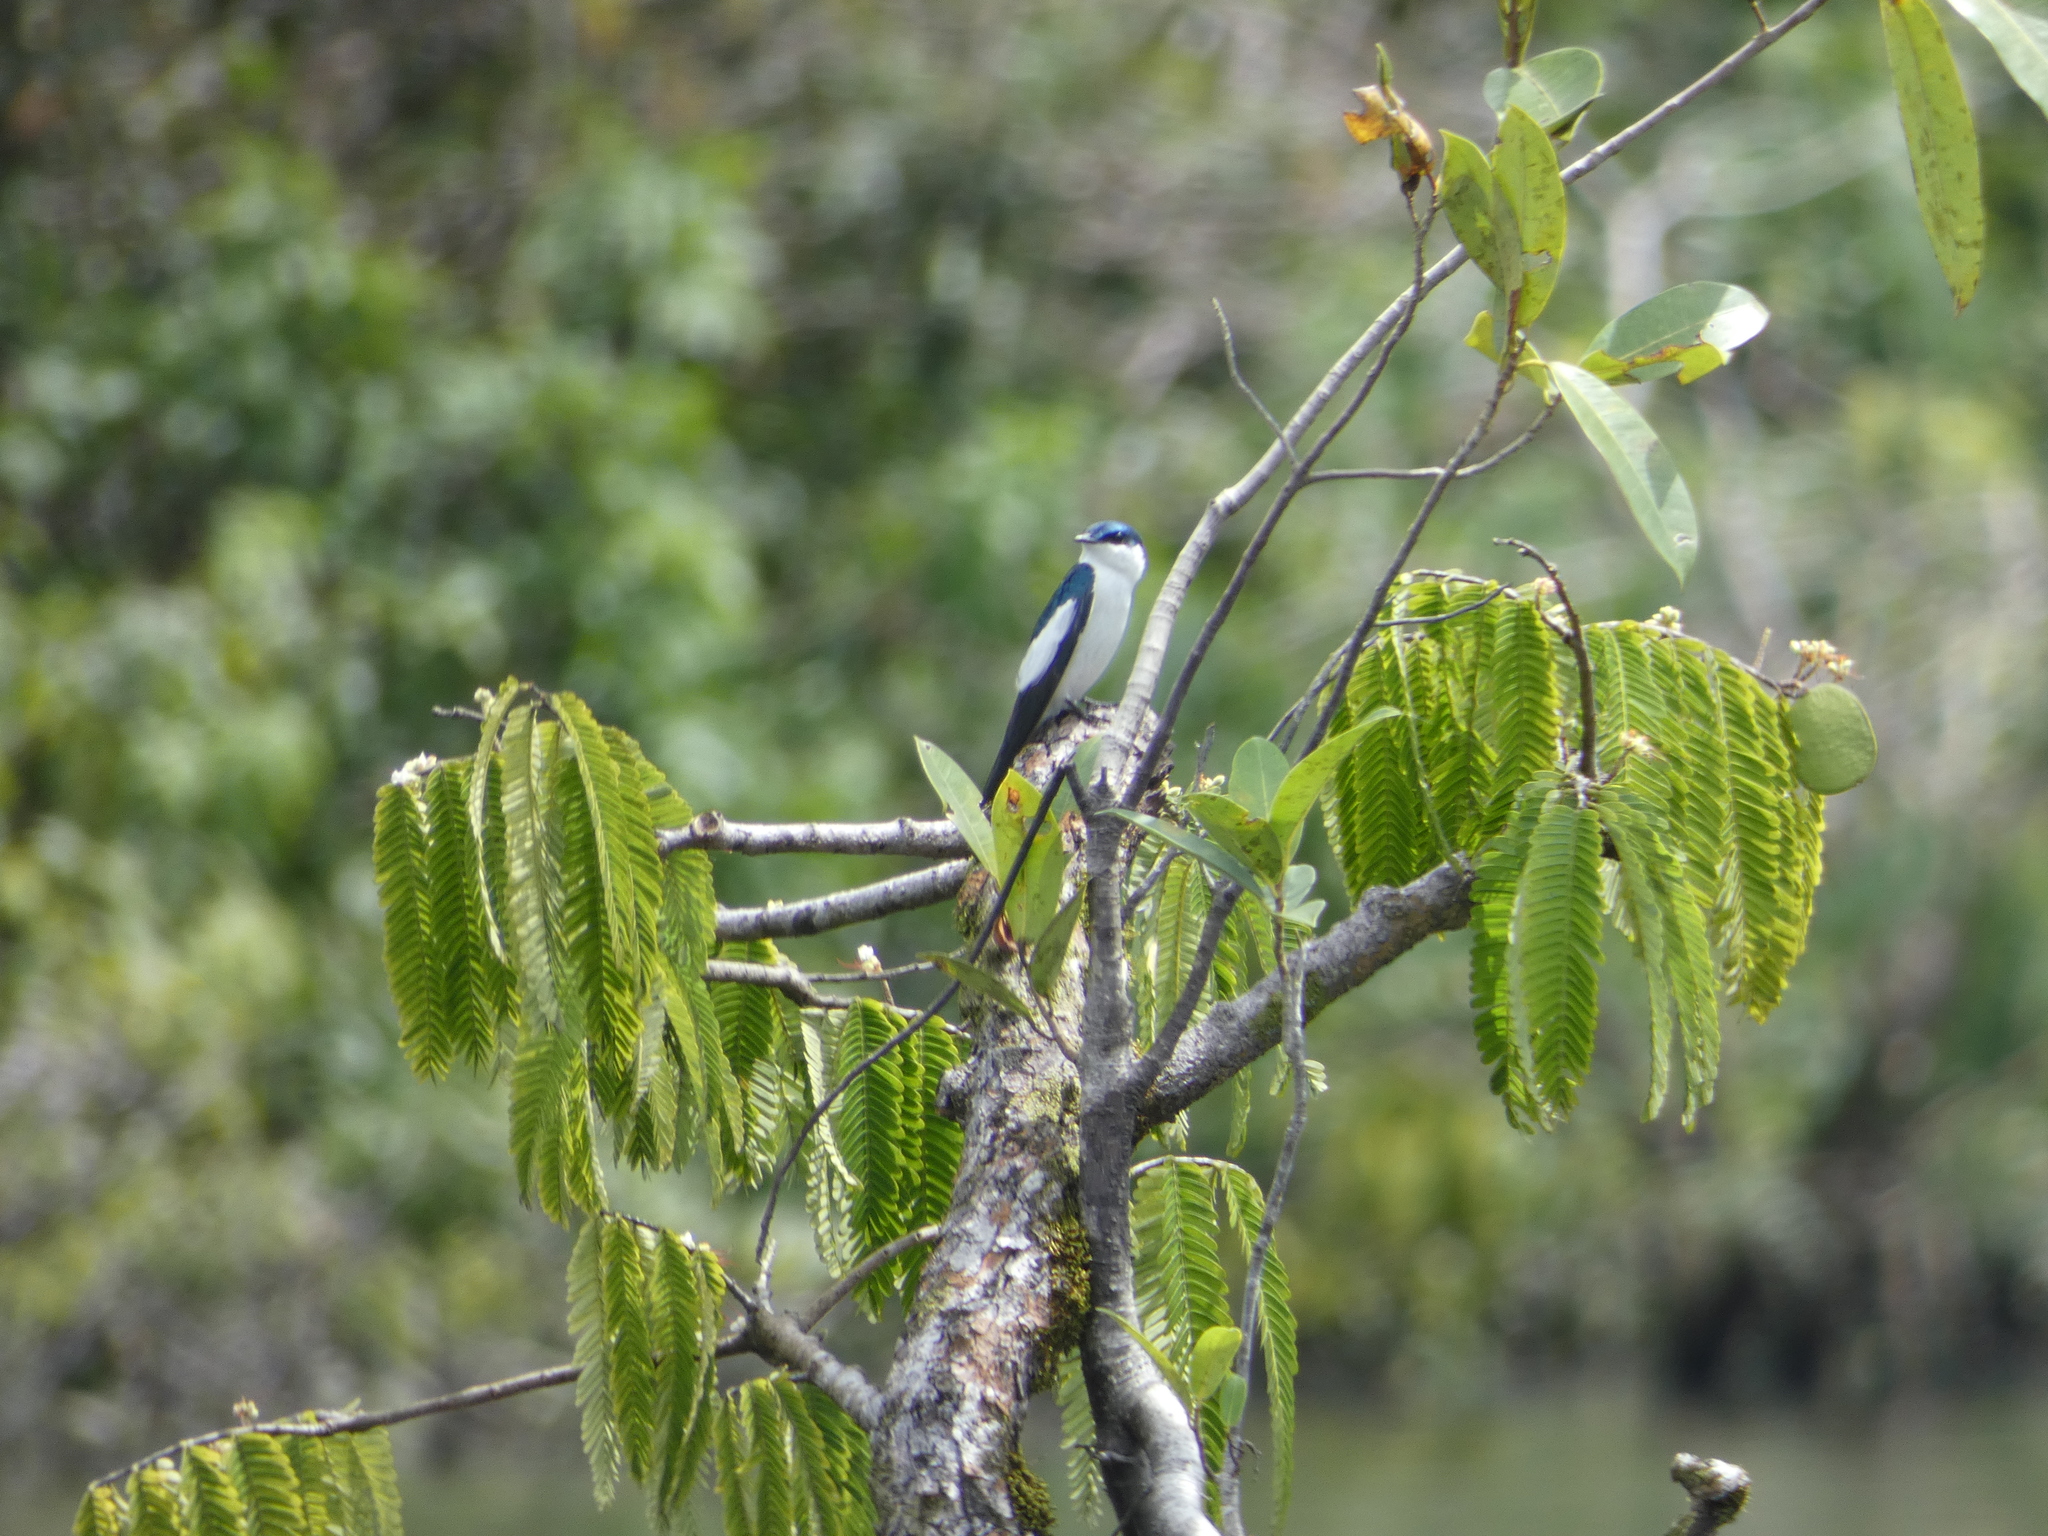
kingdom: Animalia
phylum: Chordata
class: Aves
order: Passeriformes
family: Hirundinidae
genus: Tachycineta
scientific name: Tachycineta albiventer
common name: White-winged swallow
